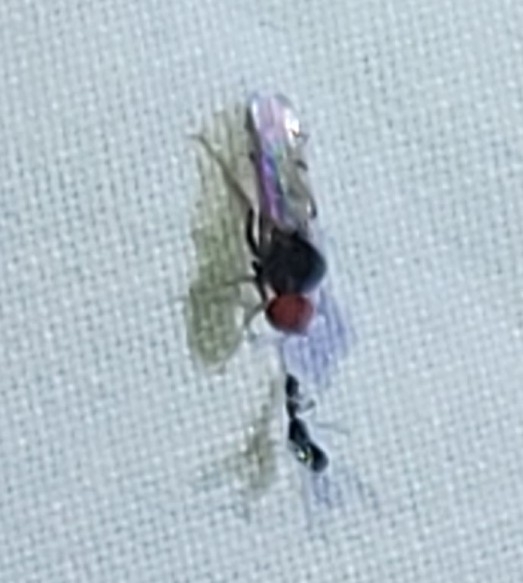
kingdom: Animalia
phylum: Arthropoda
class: Insecta
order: Diptera
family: Hybotidae
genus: Syneches
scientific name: Syneches simplex
